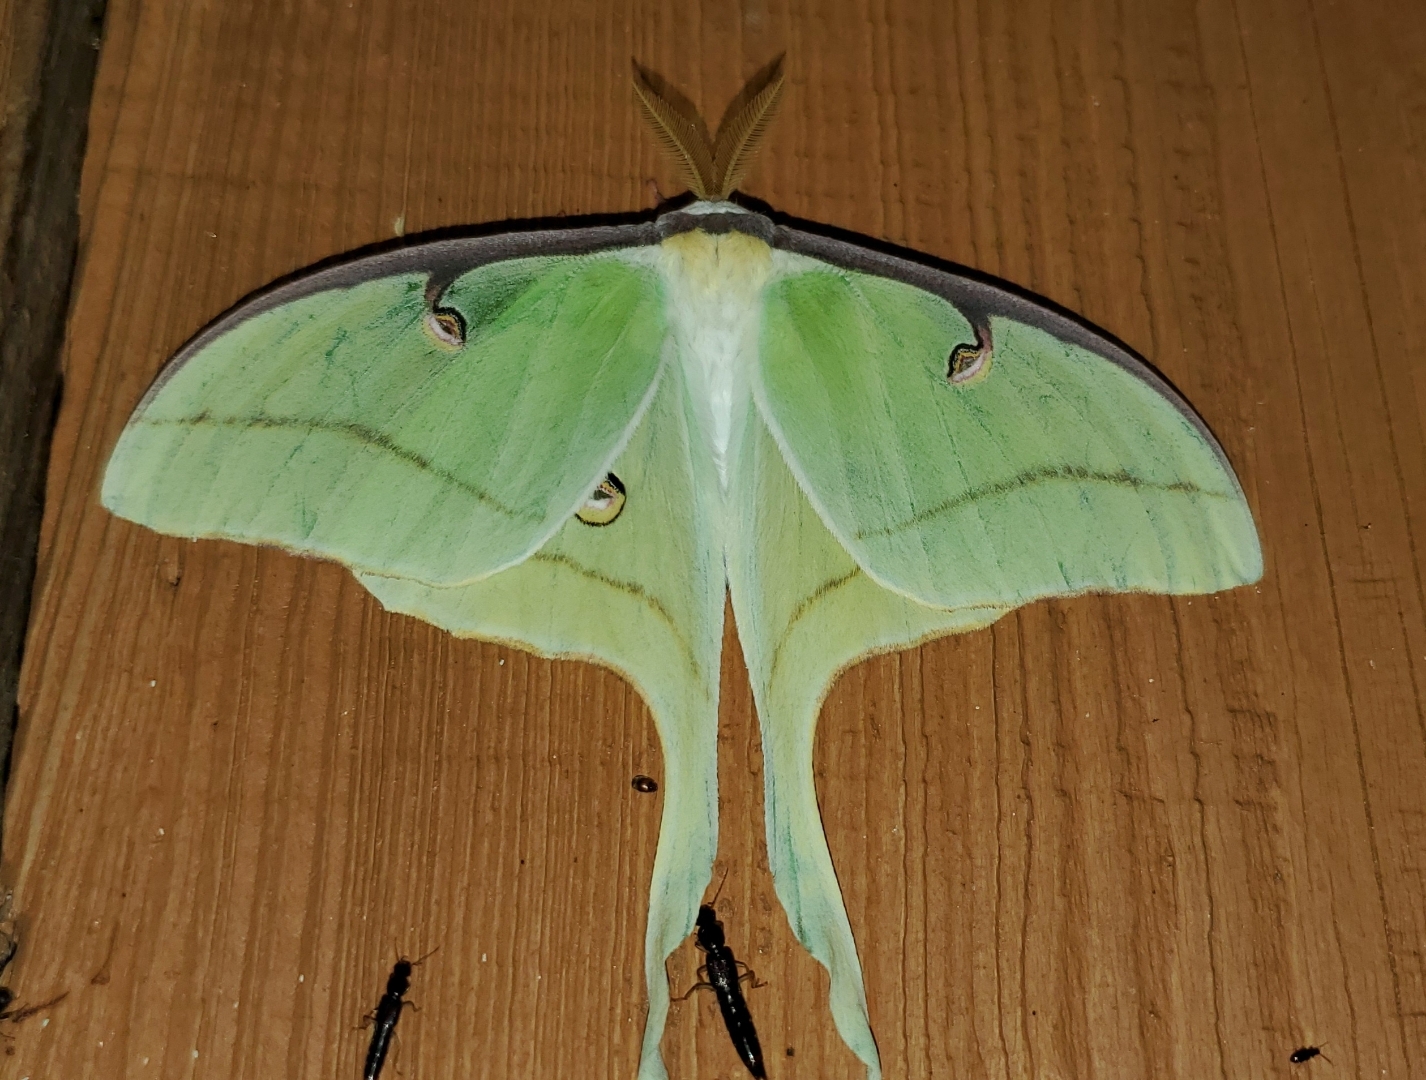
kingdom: Animalia
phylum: Arthropoda
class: Insecta
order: Lepidoptera
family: Saturniidae
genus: Actias
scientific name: Actias luna
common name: Luna moth
